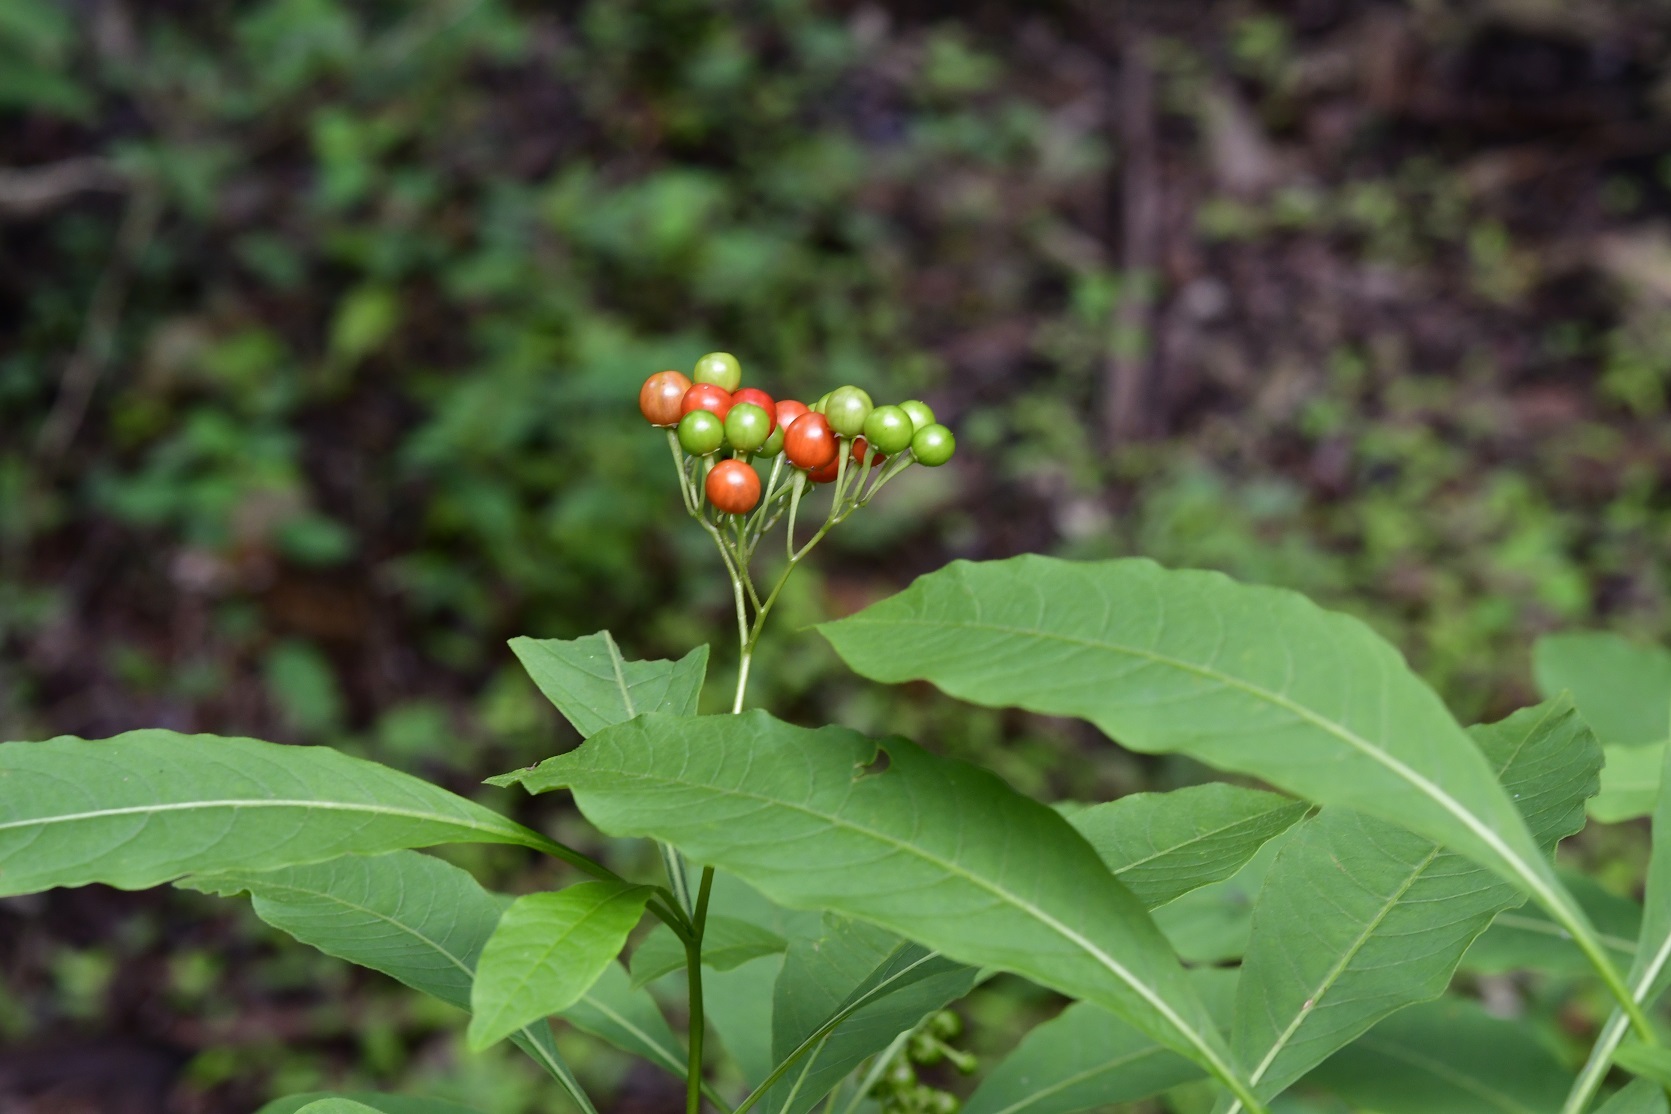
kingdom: Plantae
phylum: Tracheophyta
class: Magnoliopsida
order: Solanales
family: Solanaceae
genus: Solanum
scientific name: Solanum pubigerum
